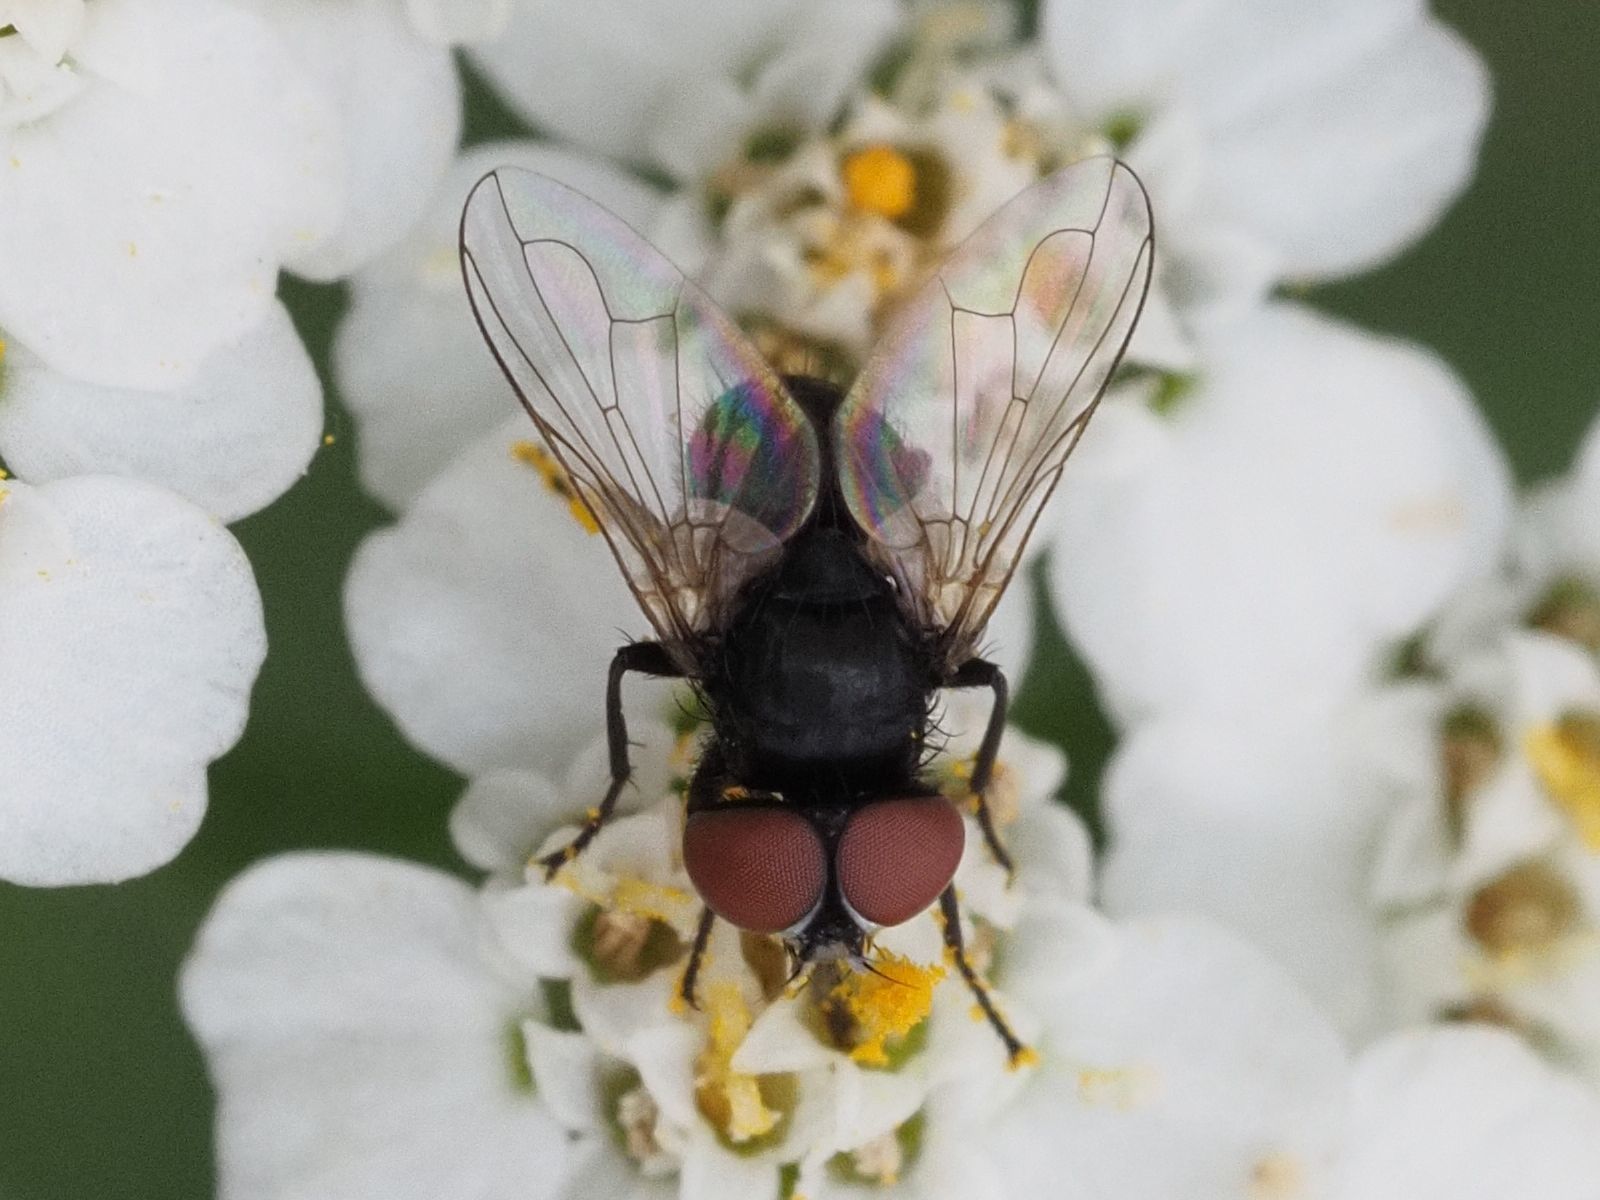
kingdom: Animalia
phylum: Arthropoda
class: Insecta
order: Diptera
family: Tachinidae
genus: Phasia
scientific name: Phasia pusilla
